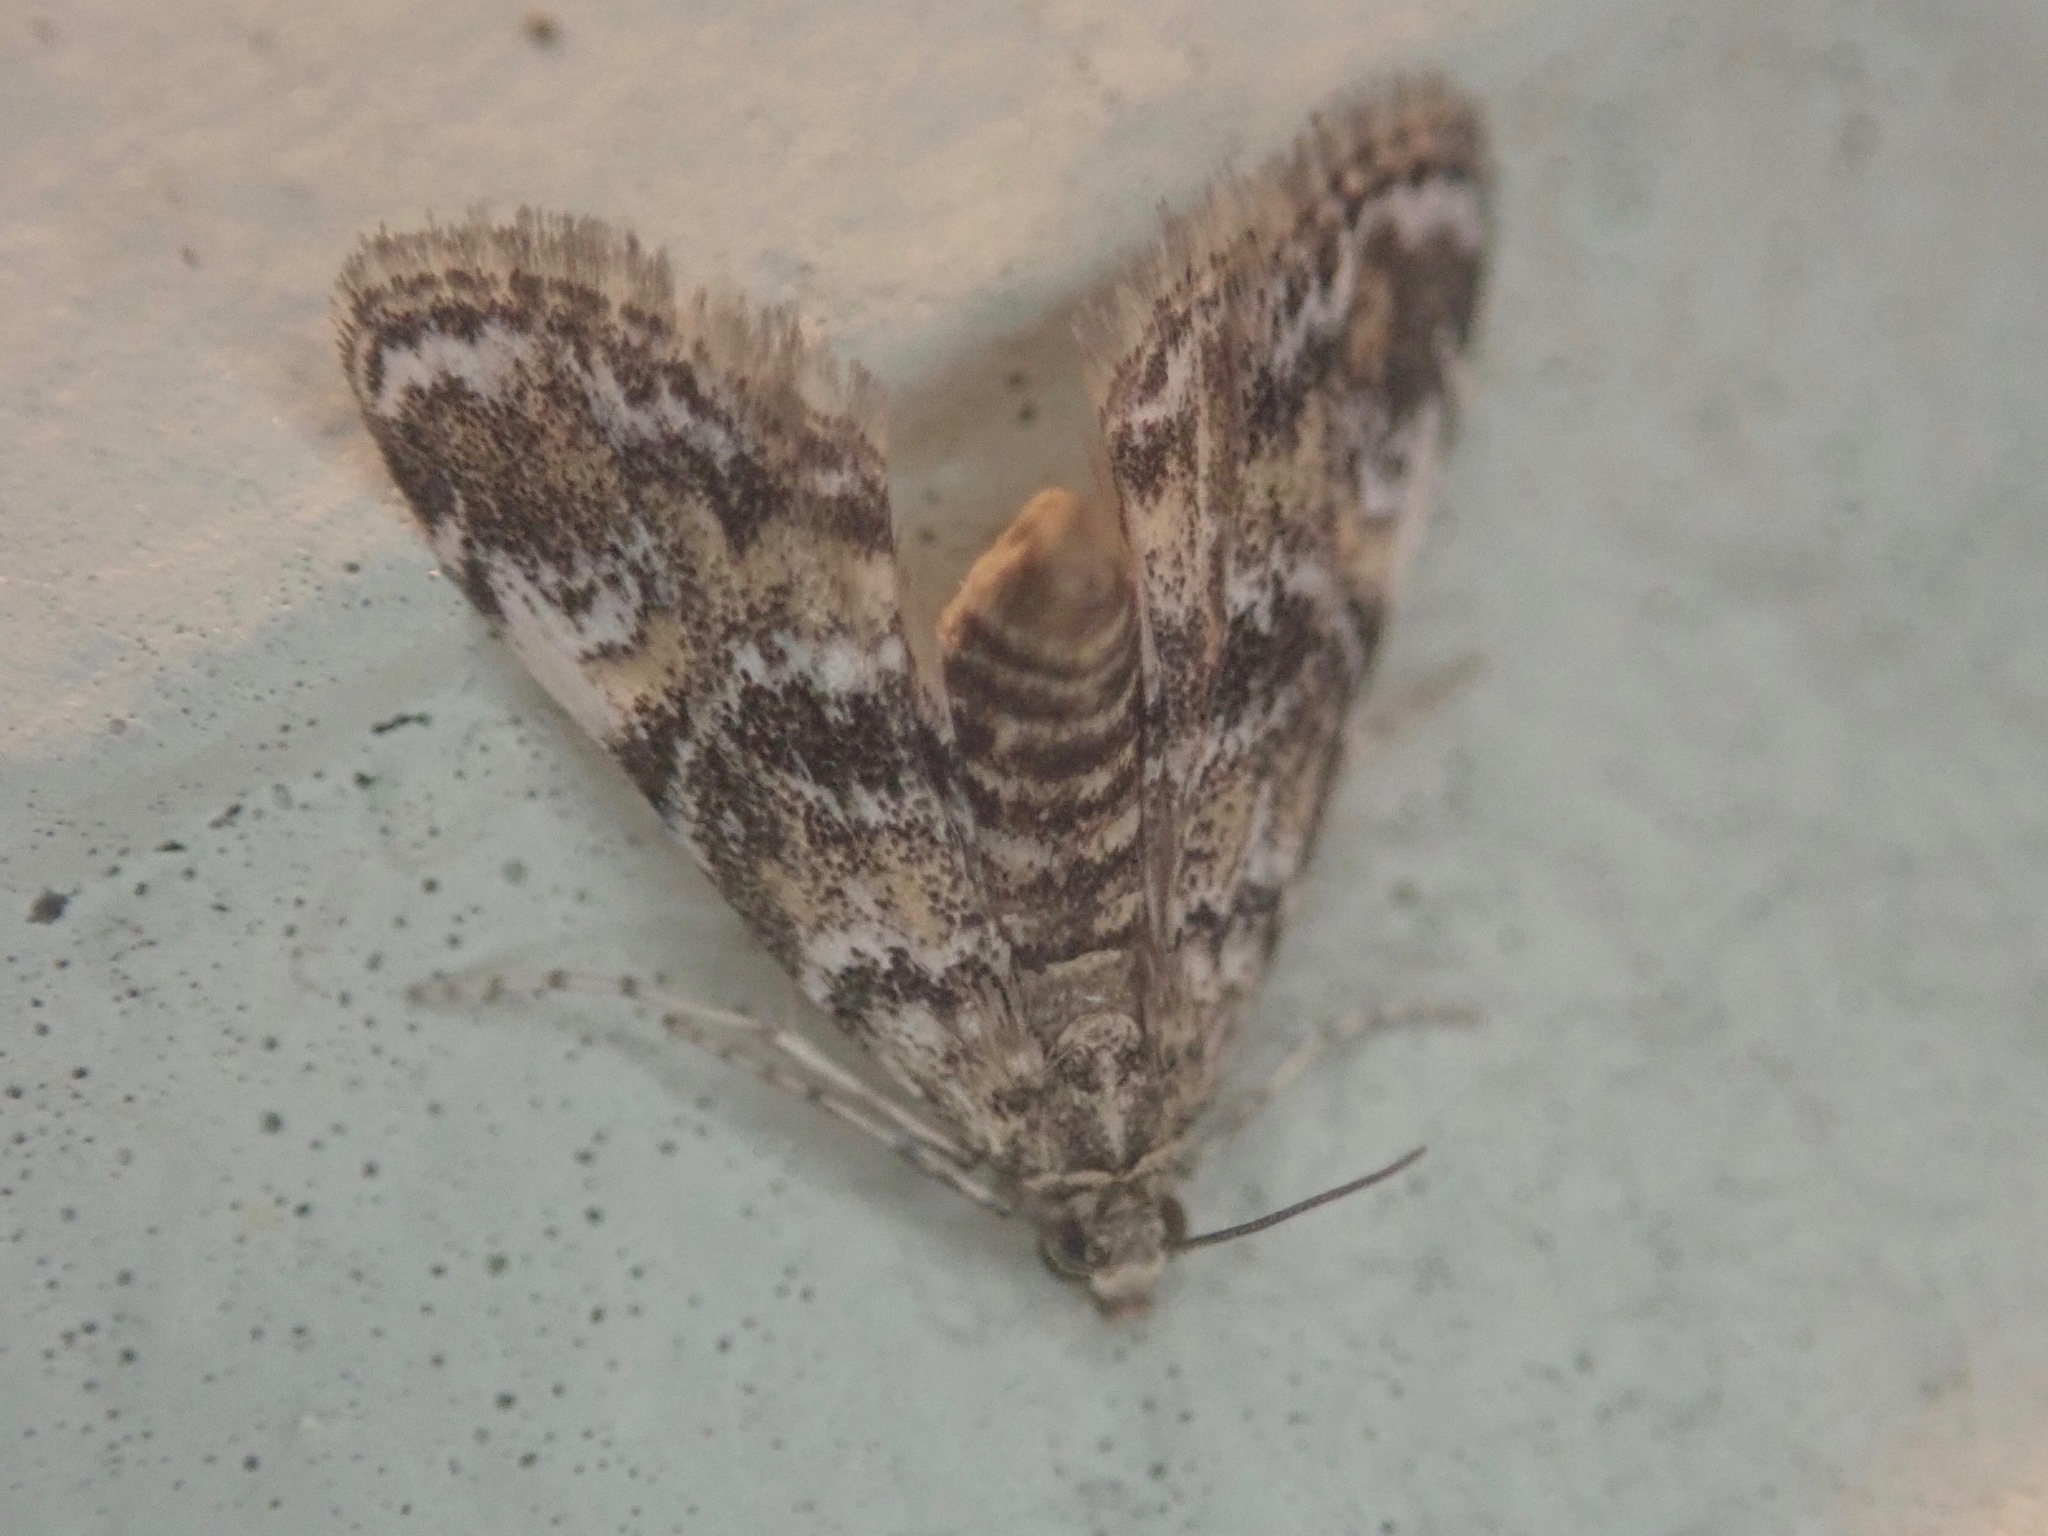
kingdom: Animalia
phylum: Arthropoda
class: Insecta
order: Lepidoptera
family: Crambidae
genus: Elophila
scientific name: Elophila obliteralis
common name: Waterlily leafcutter moth
